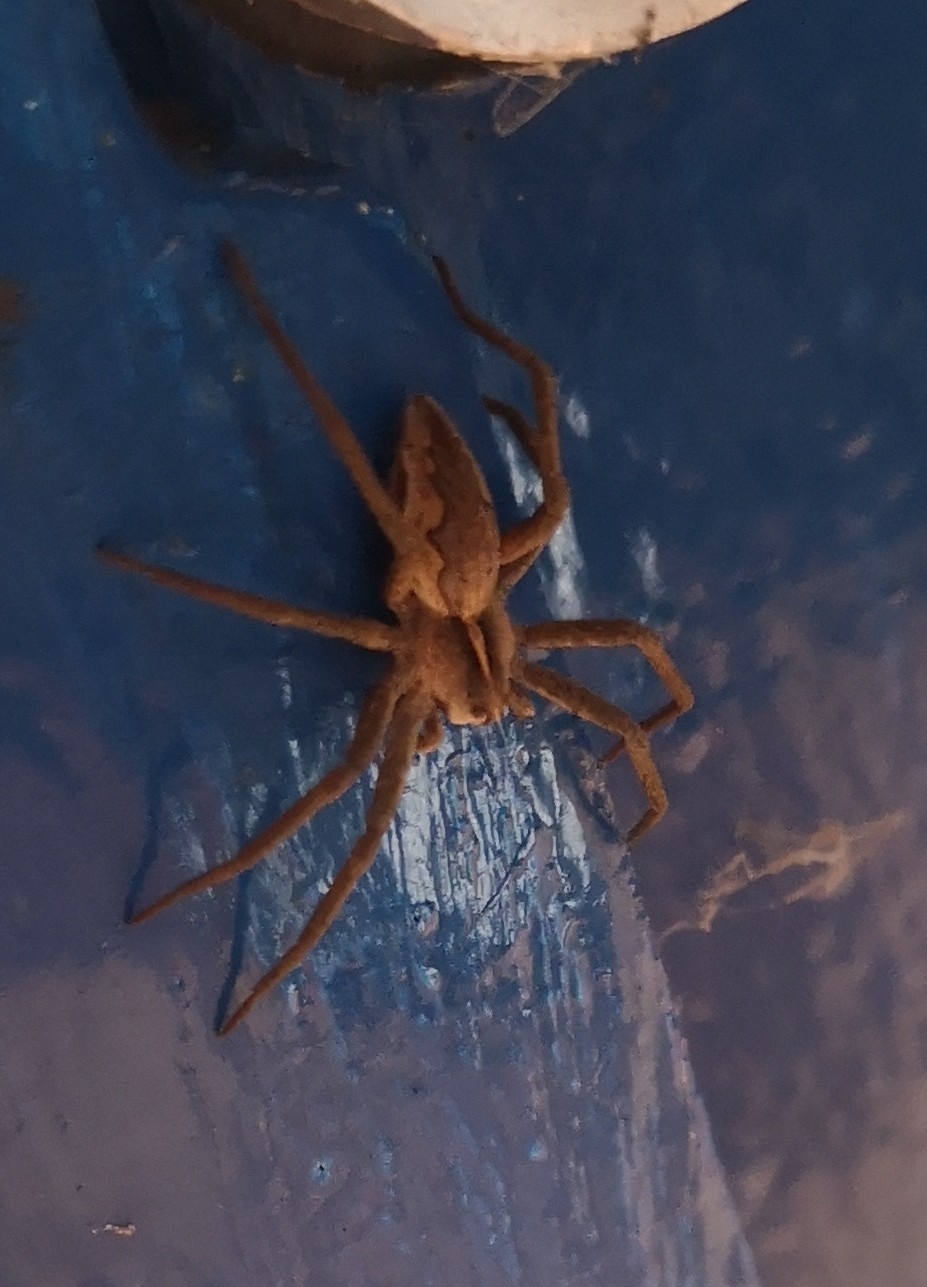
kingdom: Animalia
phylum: Arthropoda
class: Arachnida
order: Araneae
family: Pisauridae
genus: Pisaura
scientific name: Pisaura mirabilis
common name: Tent spider
